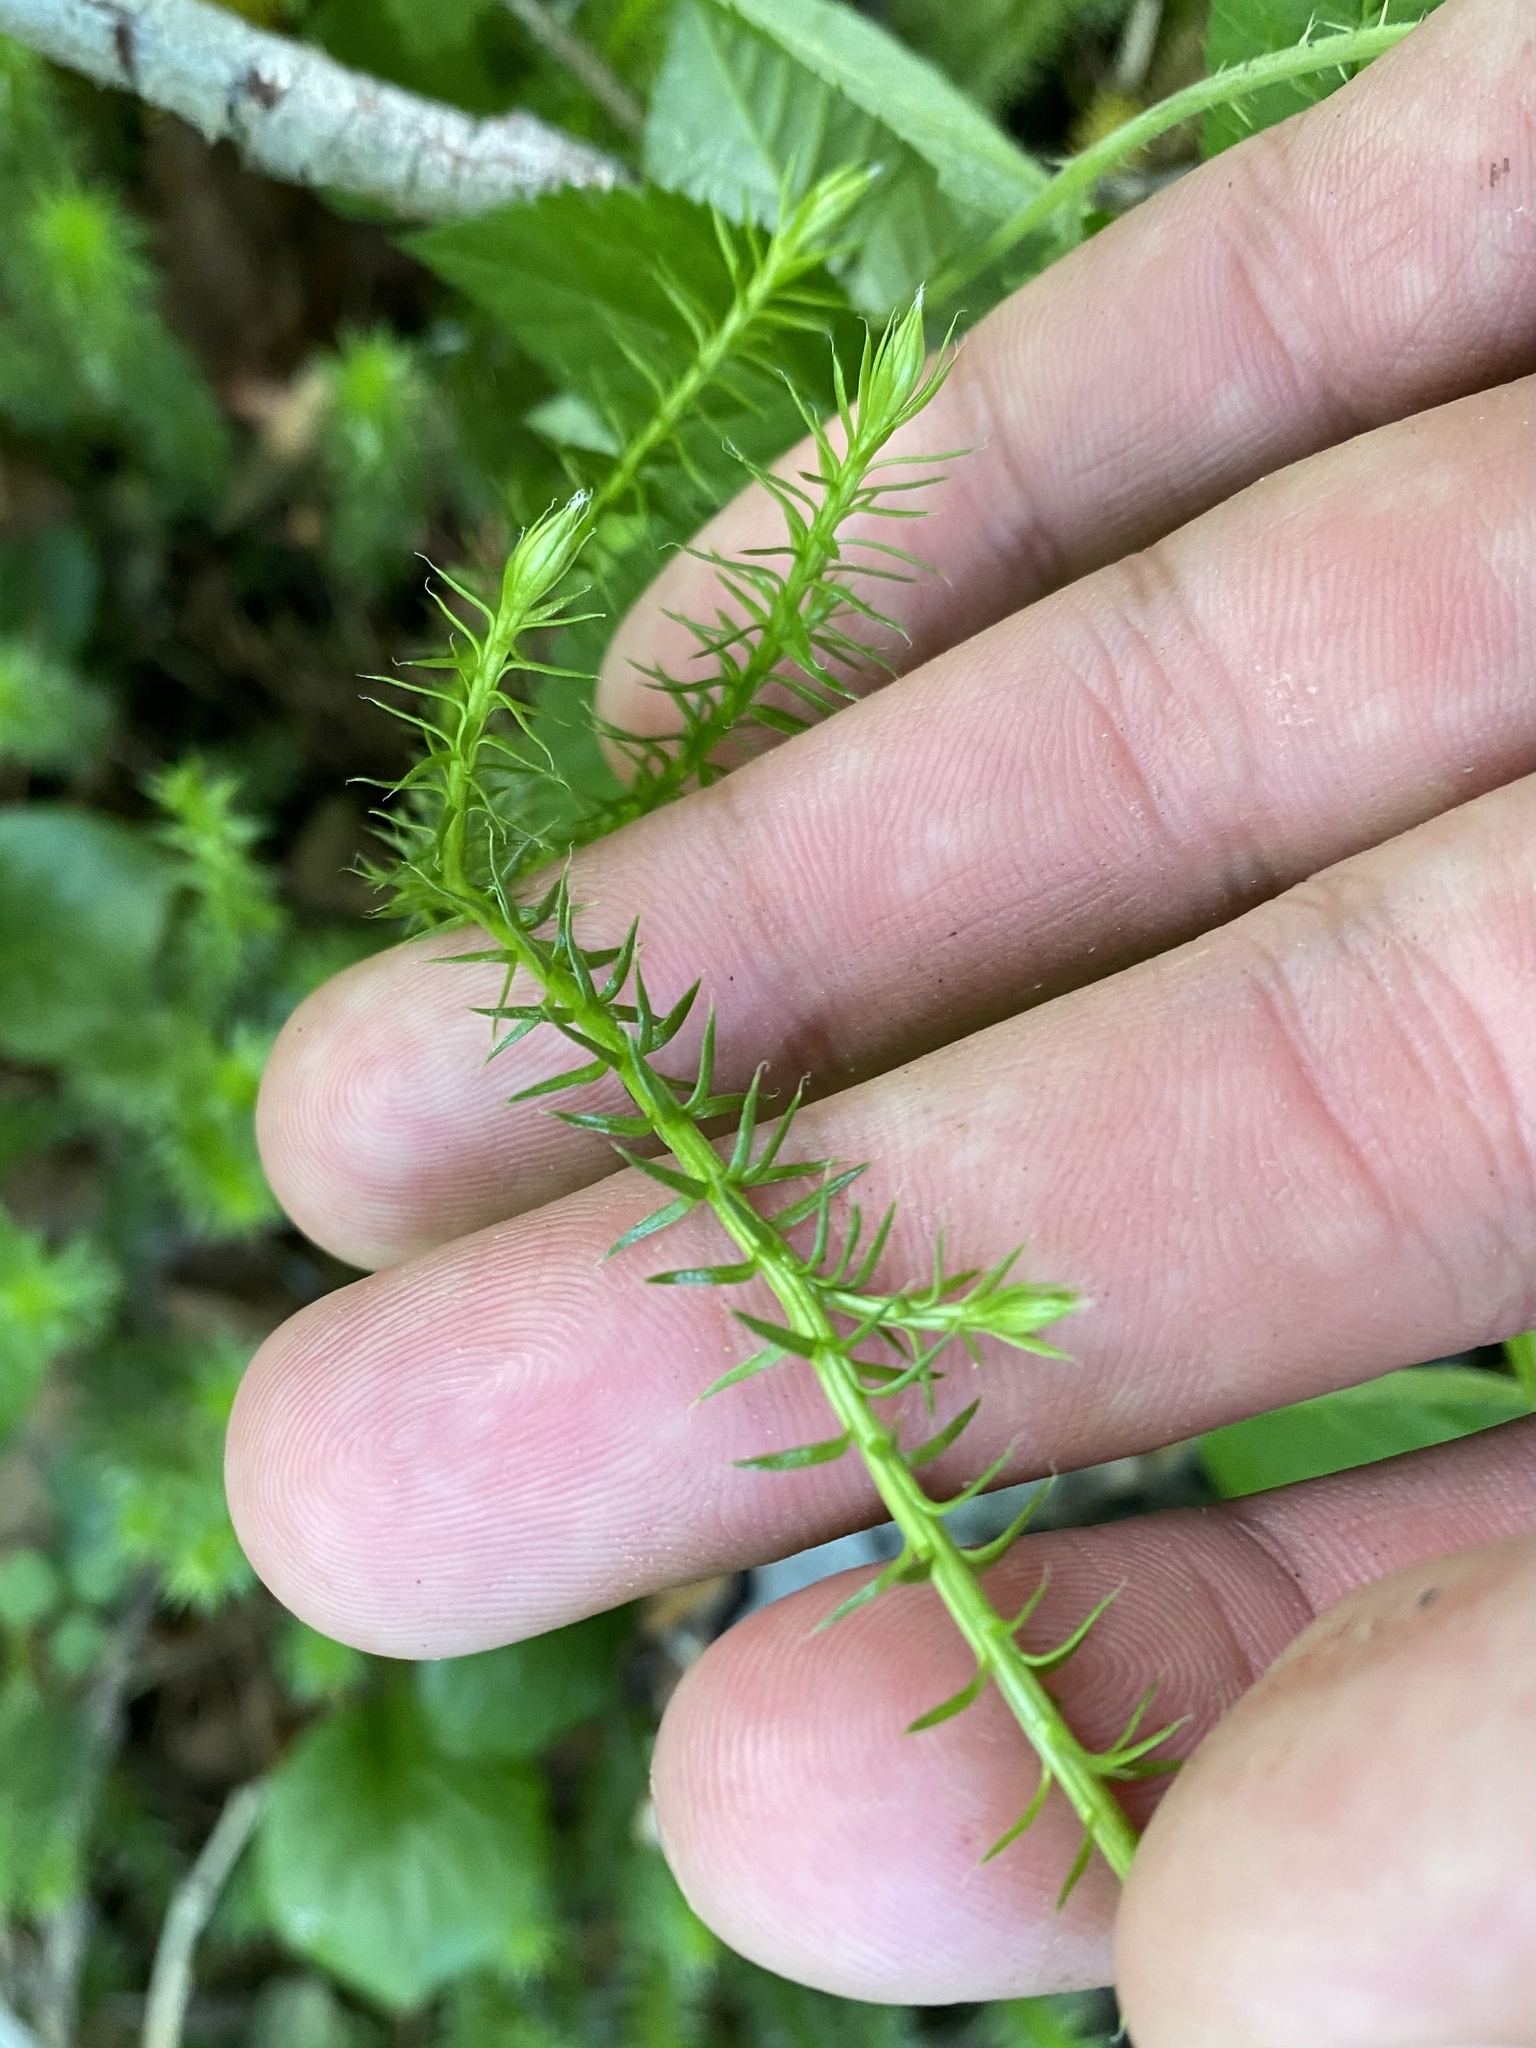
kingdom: Plantae
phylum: Tracheophyta
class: Lycopodiopsida
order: Lycopodiales
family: Lycopodiaceae
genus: Spinulum
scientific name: Spinulum annotinum
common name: Interrupted club-moss
